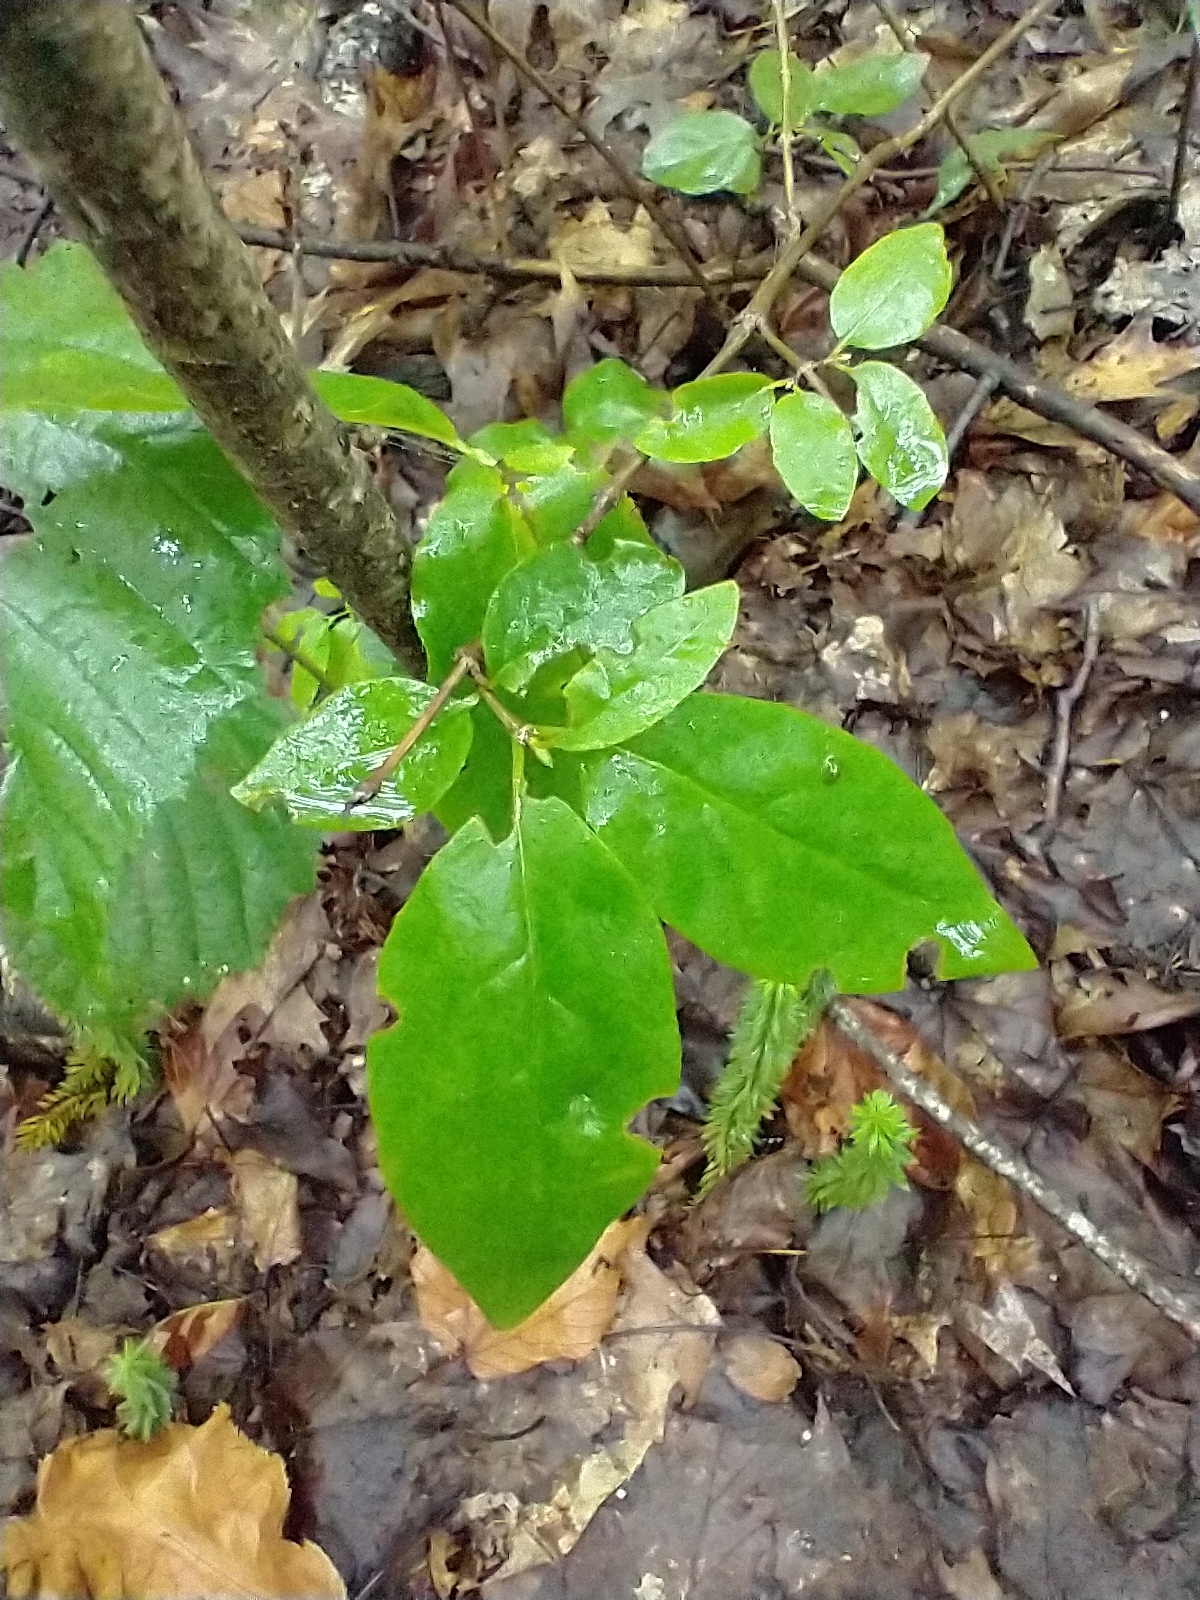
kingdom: Plantae
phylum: Tracheophyta
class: Magnoliopsida
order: Dipsacales
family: Caprifoliaceae
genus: Lonicera
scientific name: Lonicera canadensis
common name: American fly-honeysuckle
